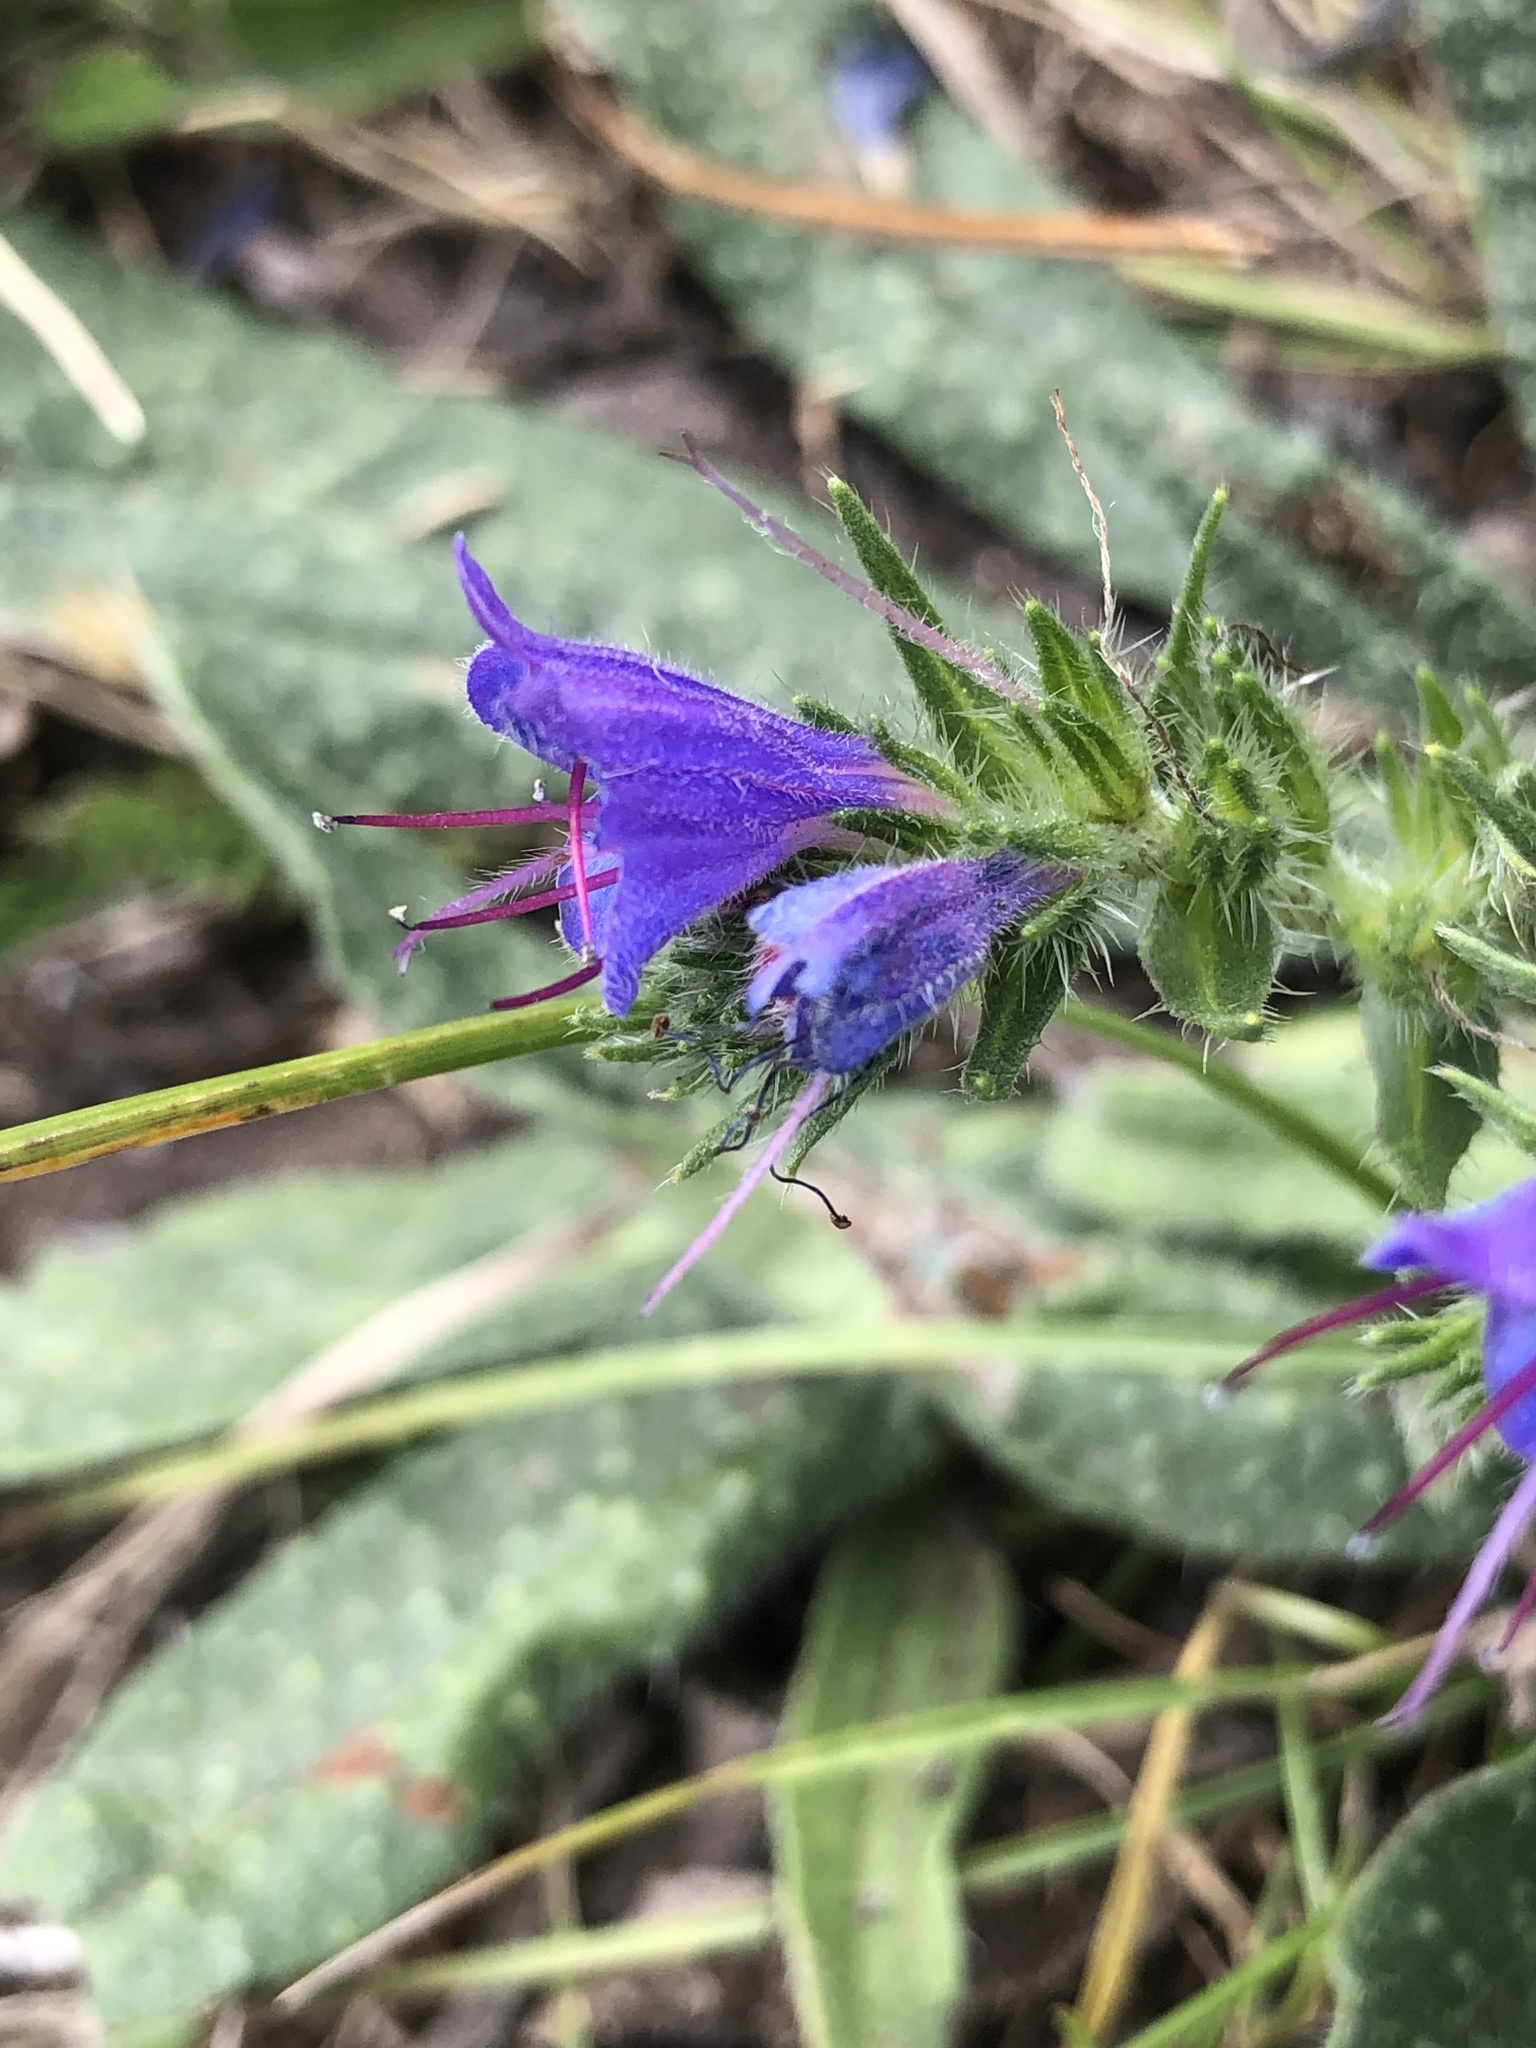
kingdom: Plantae
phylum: Tracheophyta
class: Magnoliopsida
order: Boraginales
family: Boraginaceae
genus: Echium
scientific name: Echium vulgare
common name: Common viper's bugloss
